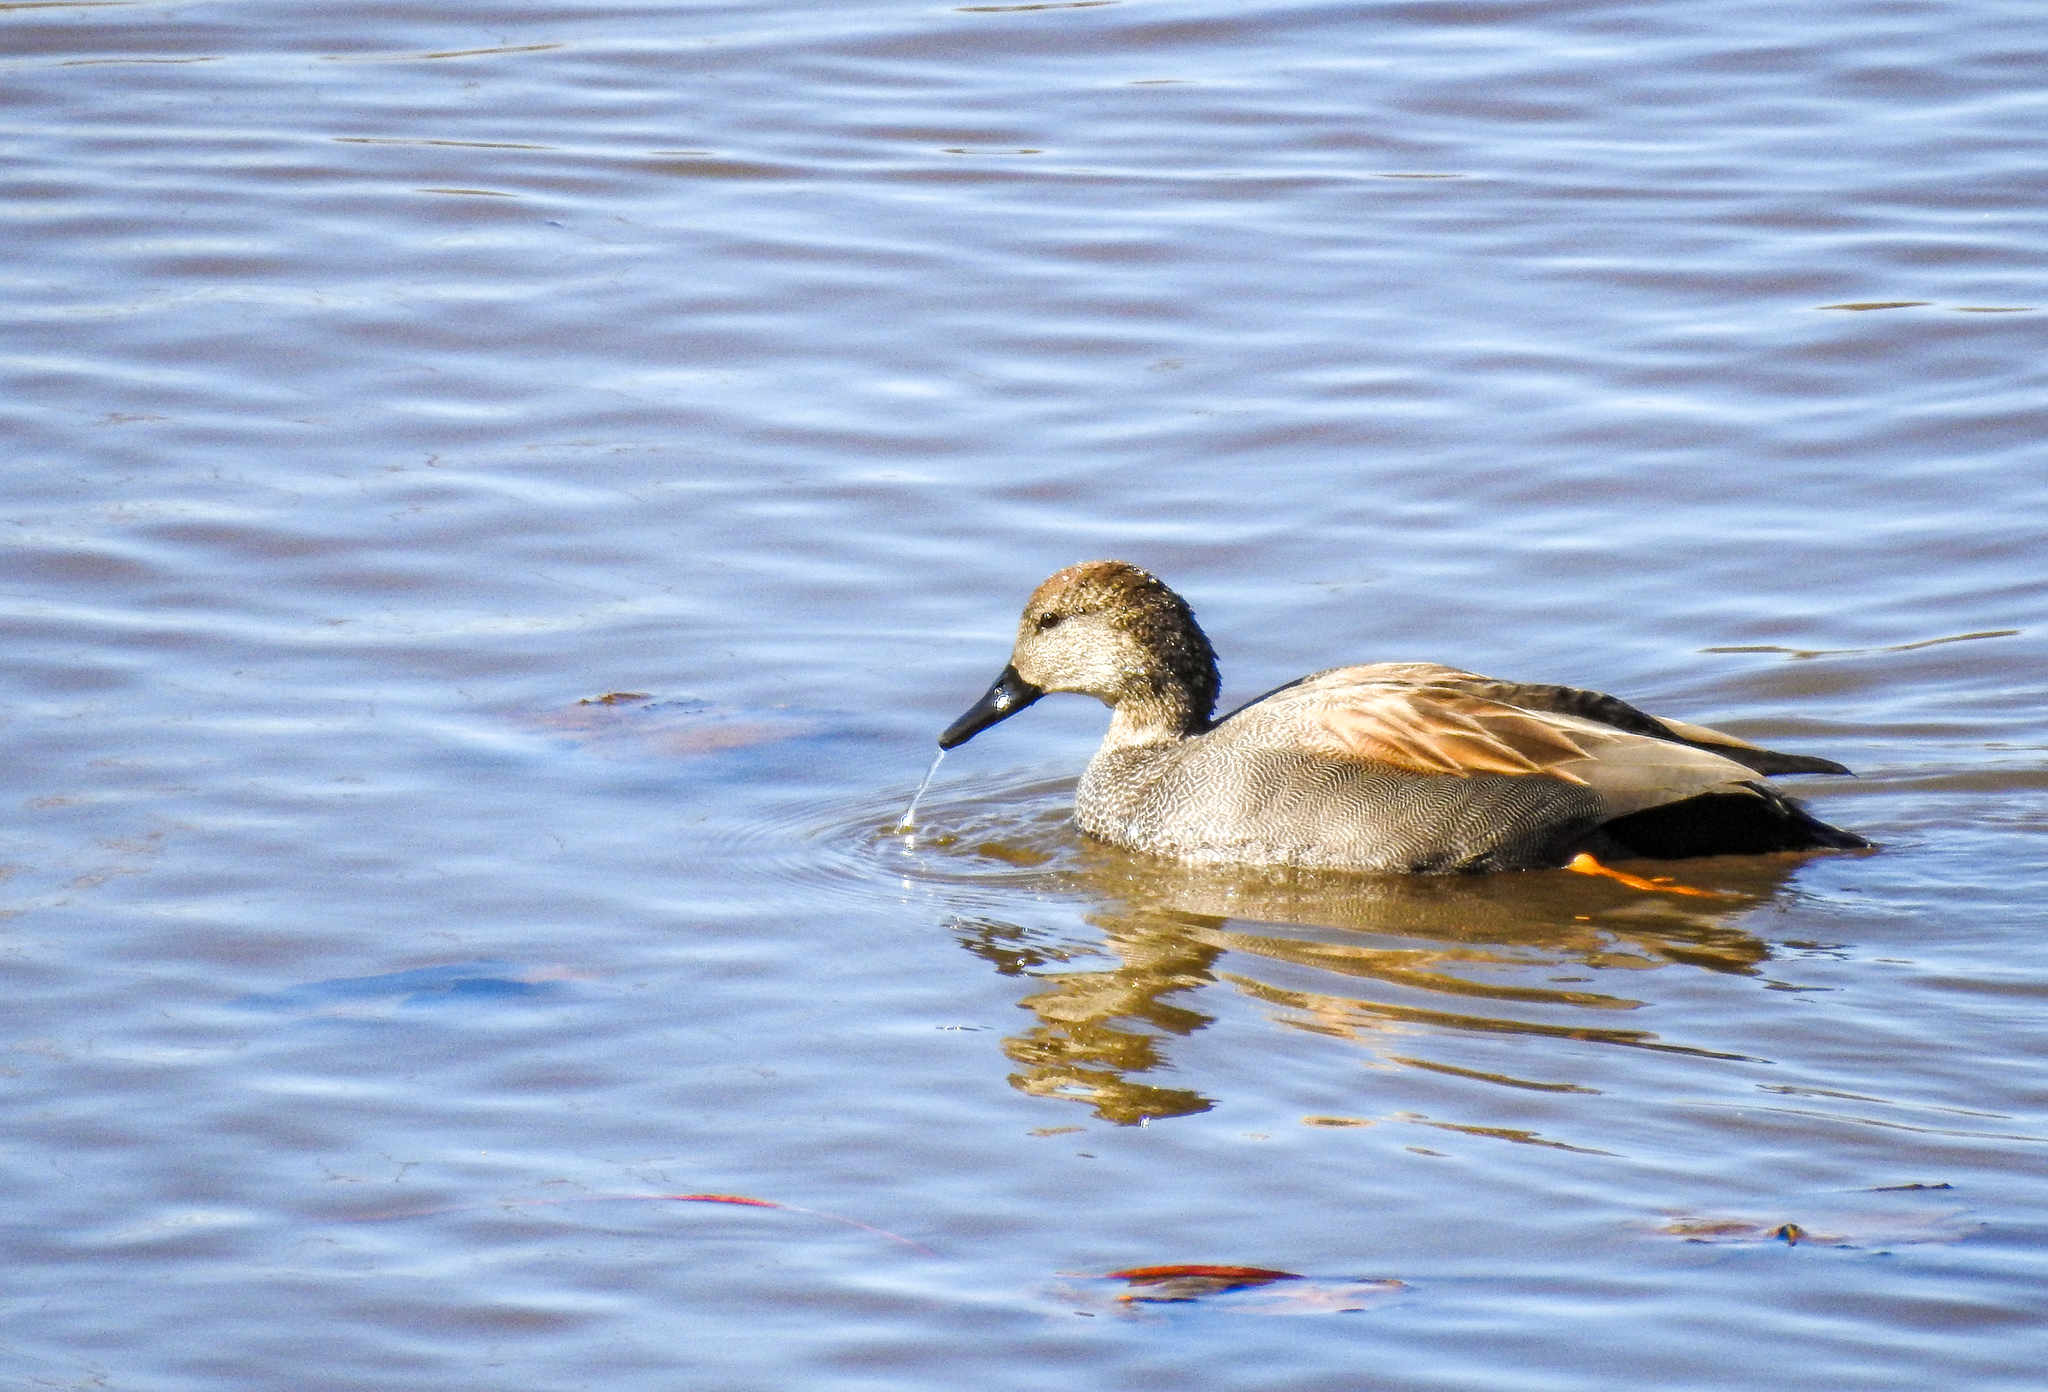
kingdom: Animalia
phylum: Chordata
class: Aves
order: Anseriformes
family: Anatidae
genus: Mareca
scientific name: Mareca strepera
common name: Gadwall
